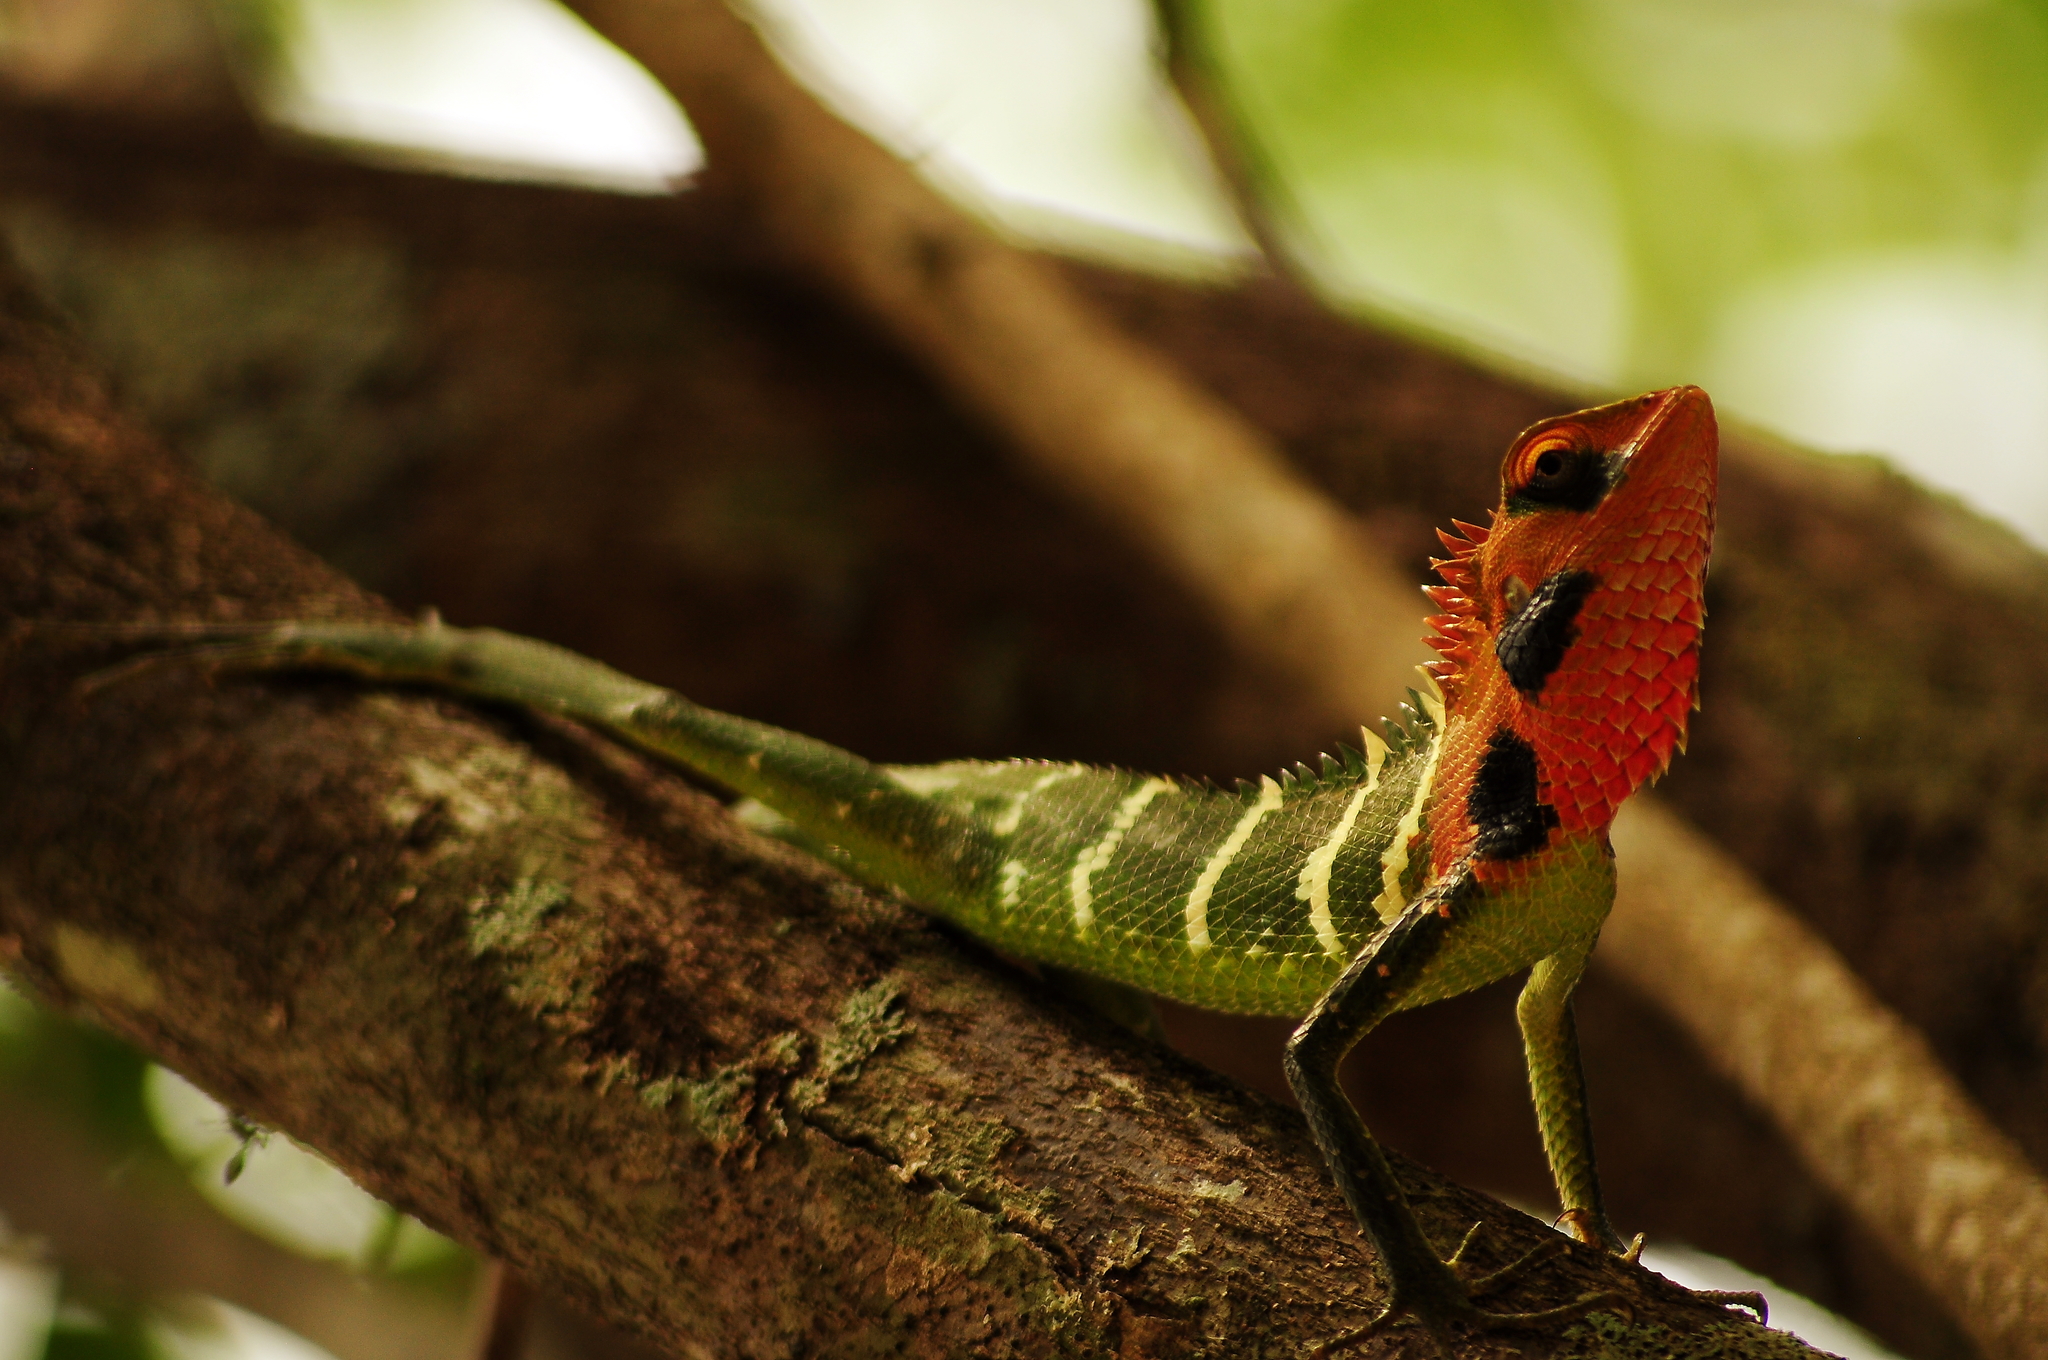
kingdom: Animalia
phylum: Chordata
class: Squamata
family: Agamidae
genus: Calotes
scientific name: Calotes calotes
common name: Common green forest lizard
